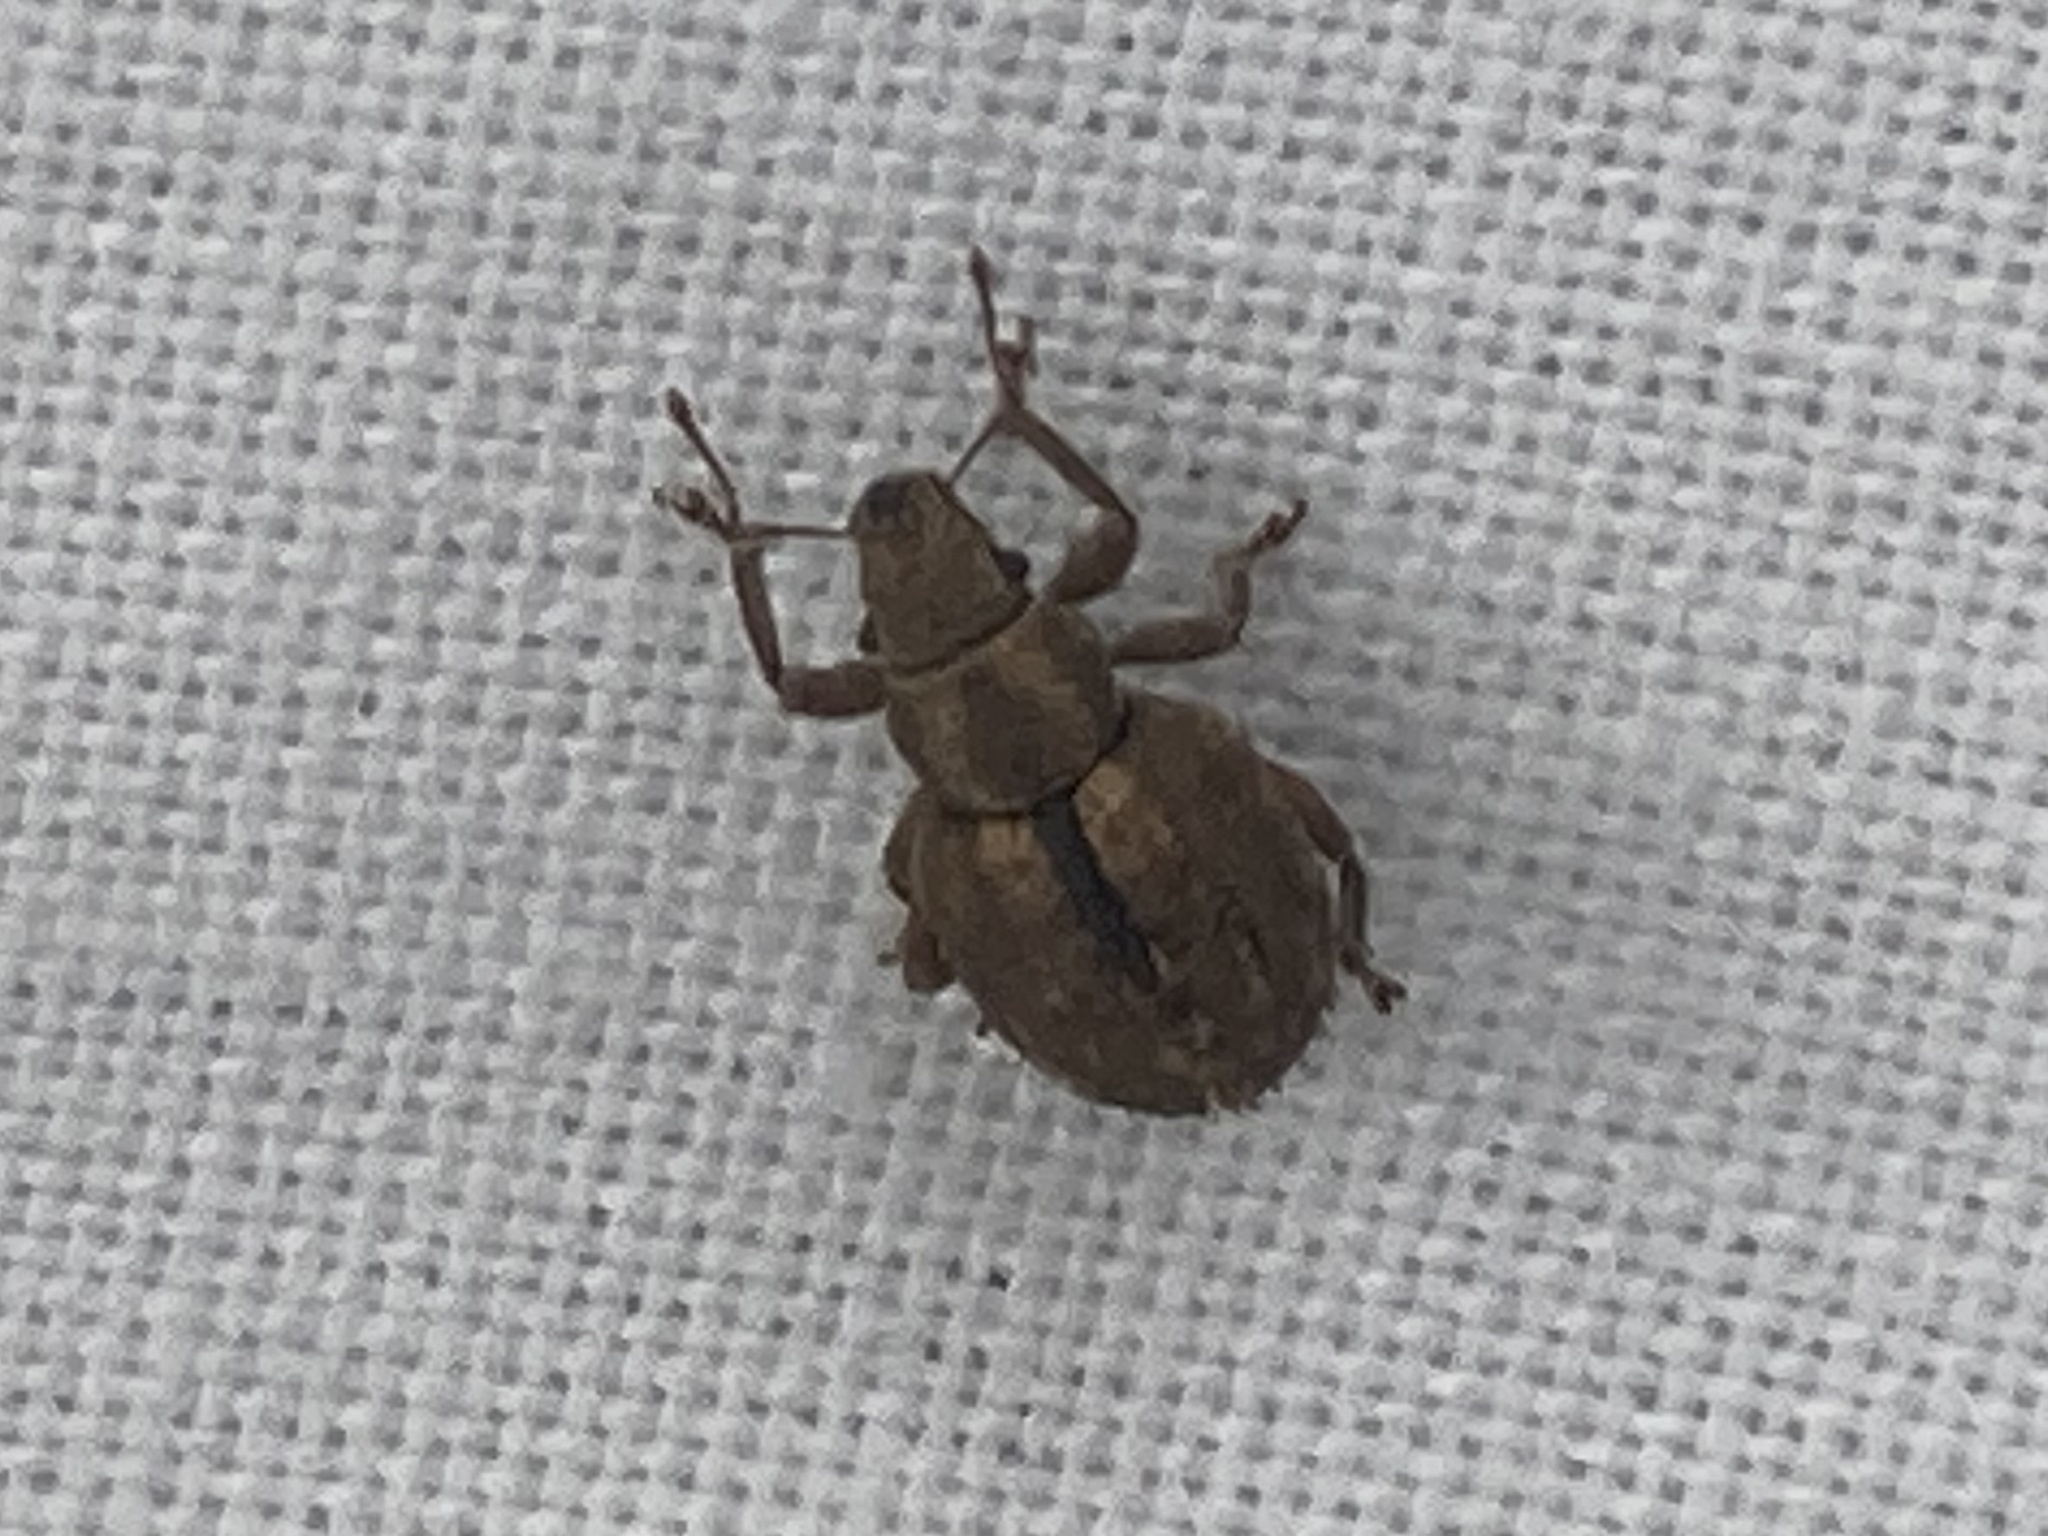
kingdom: Animalia
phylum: Arthropoda
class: Insecta
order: Coleoptera
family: Curculionidae
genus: Strophosoma
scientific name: Strophosoma melanogrammum
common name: Weevil
